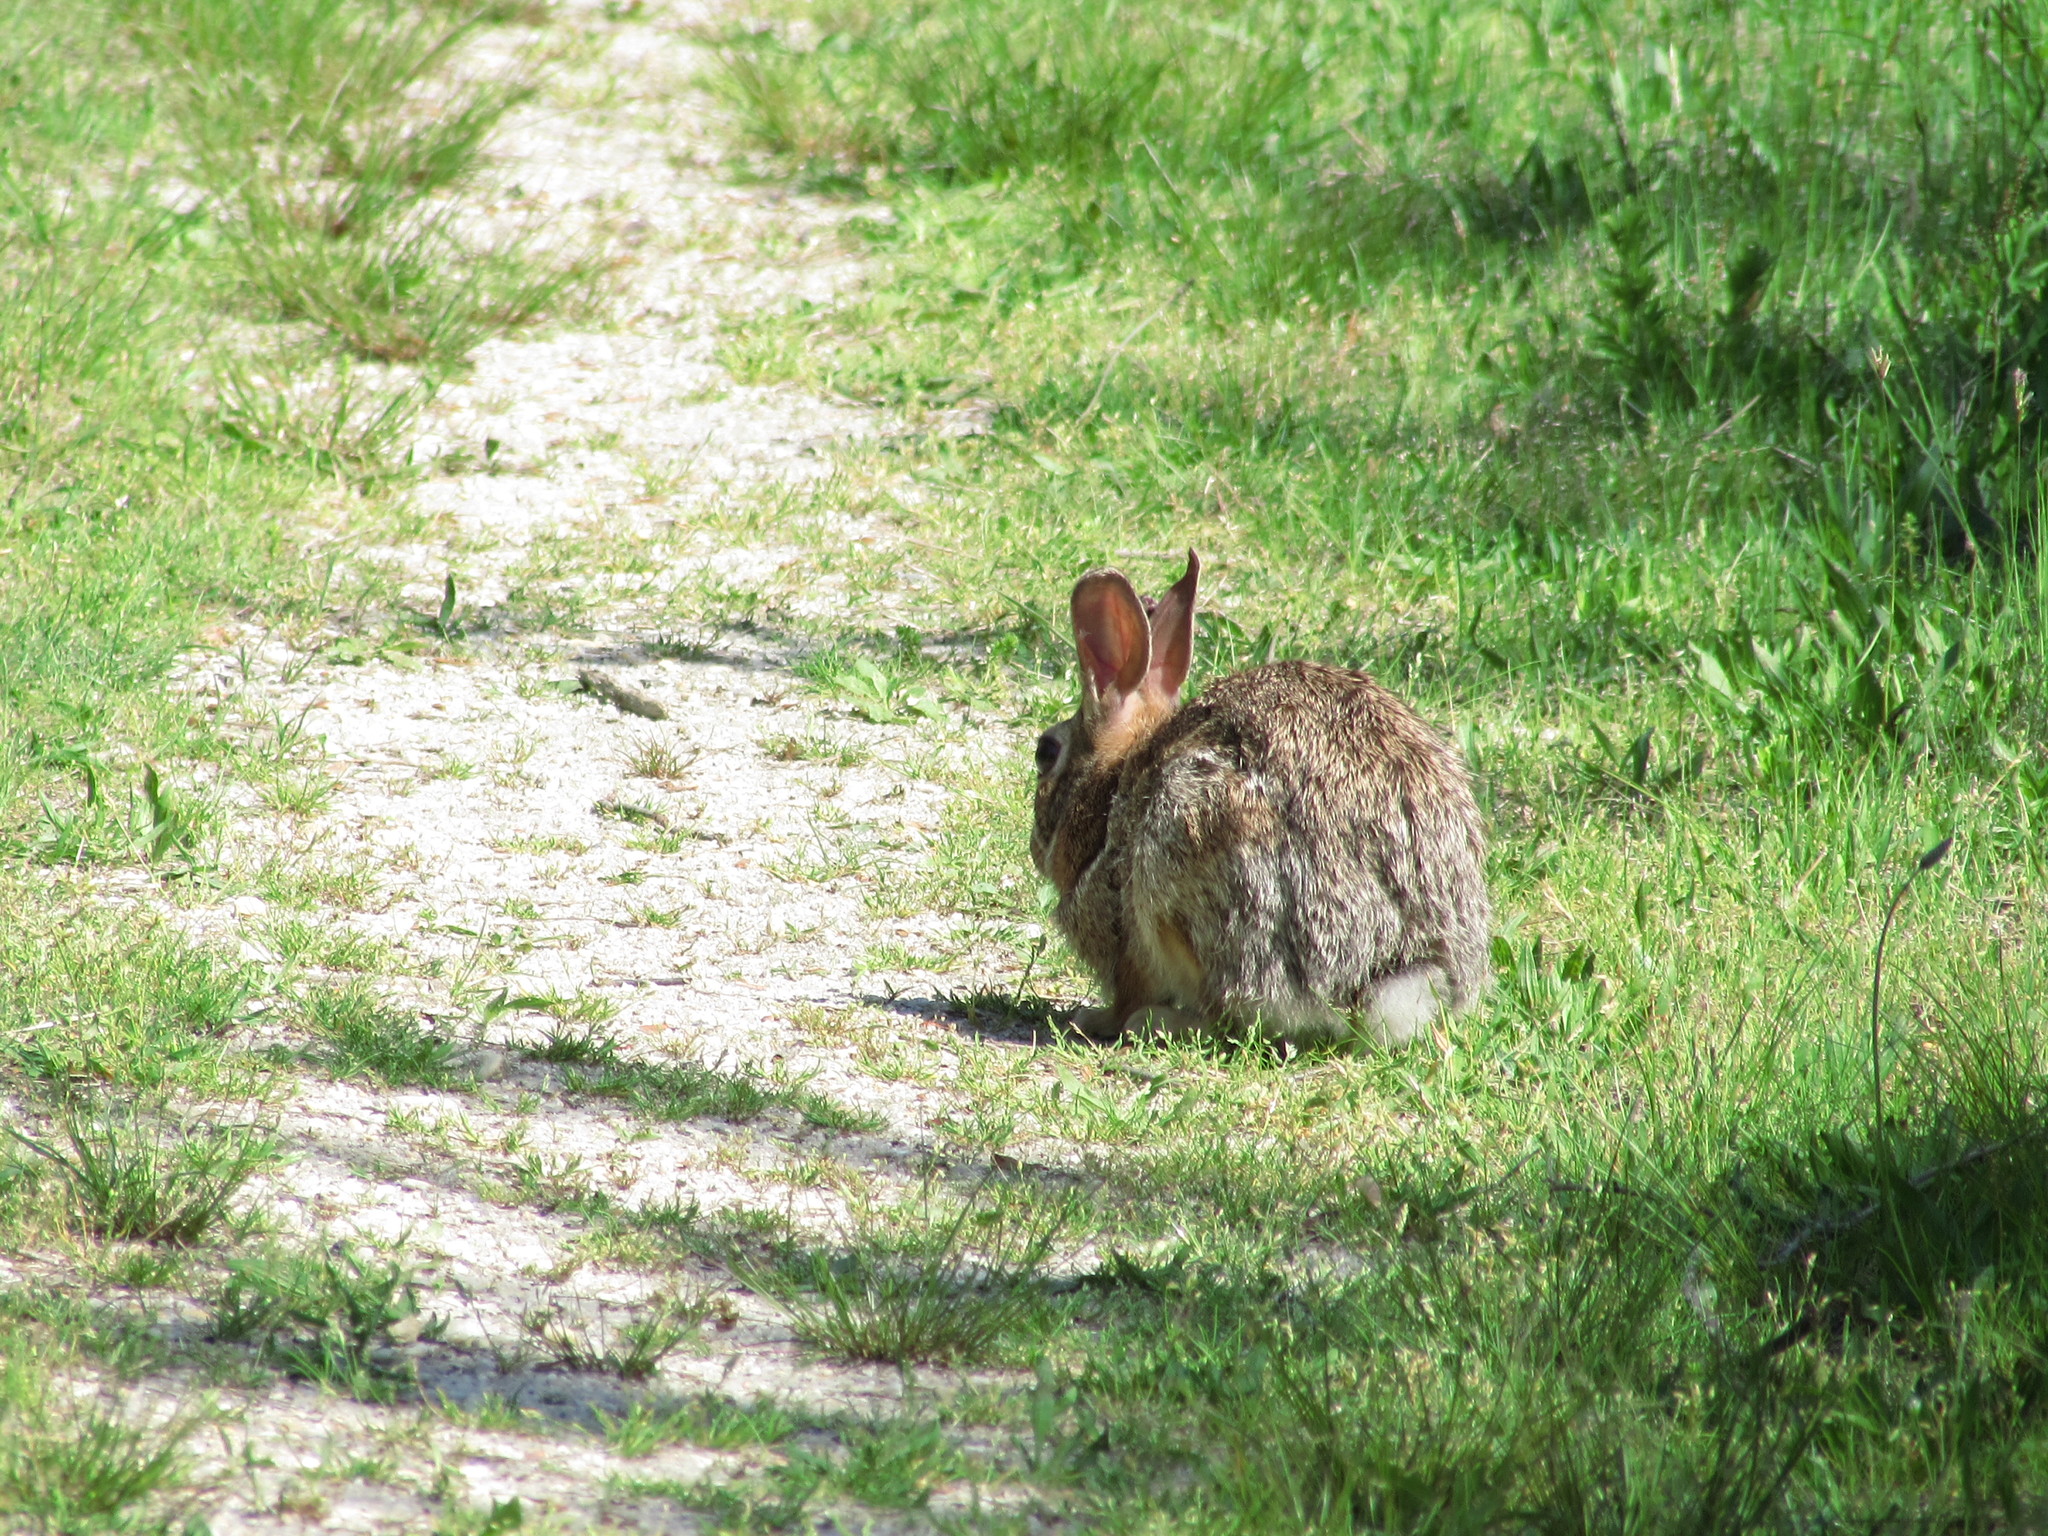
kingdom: Animalia
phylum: Chordata
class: Mammalia
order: Lagomorpha
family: Leporidae
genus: Sylvilagus
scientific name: Sylvilagus floridanus
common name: Eastern cottontail
